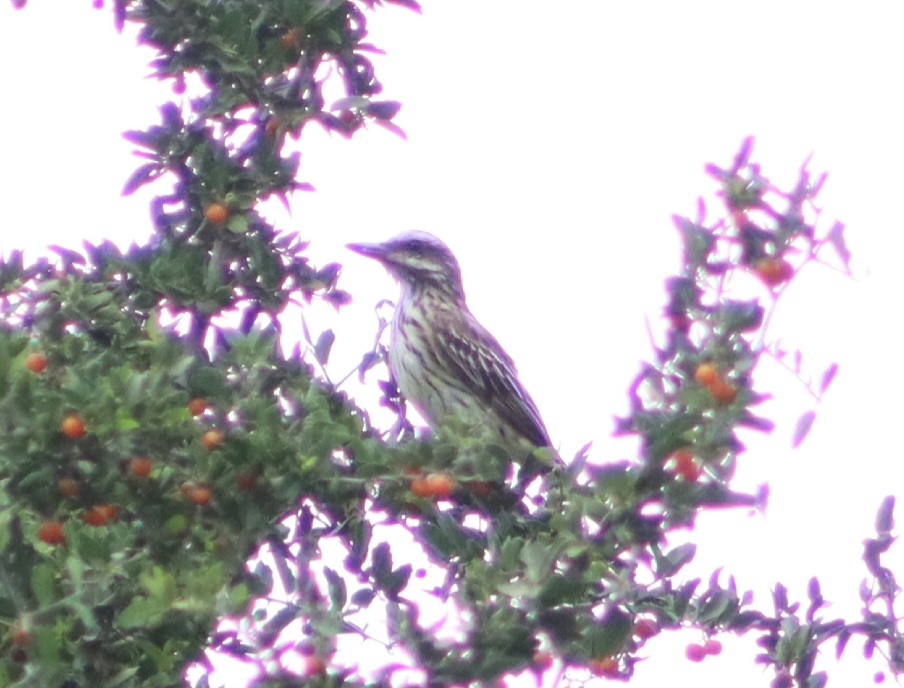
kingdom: Animalia
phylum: Chordata
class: Aves
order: Passeriformes
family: Tyrannidae
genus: Myiodynastes
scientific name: Myiodynastes luteiventris
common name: Sulphur-bellied flycatcher
